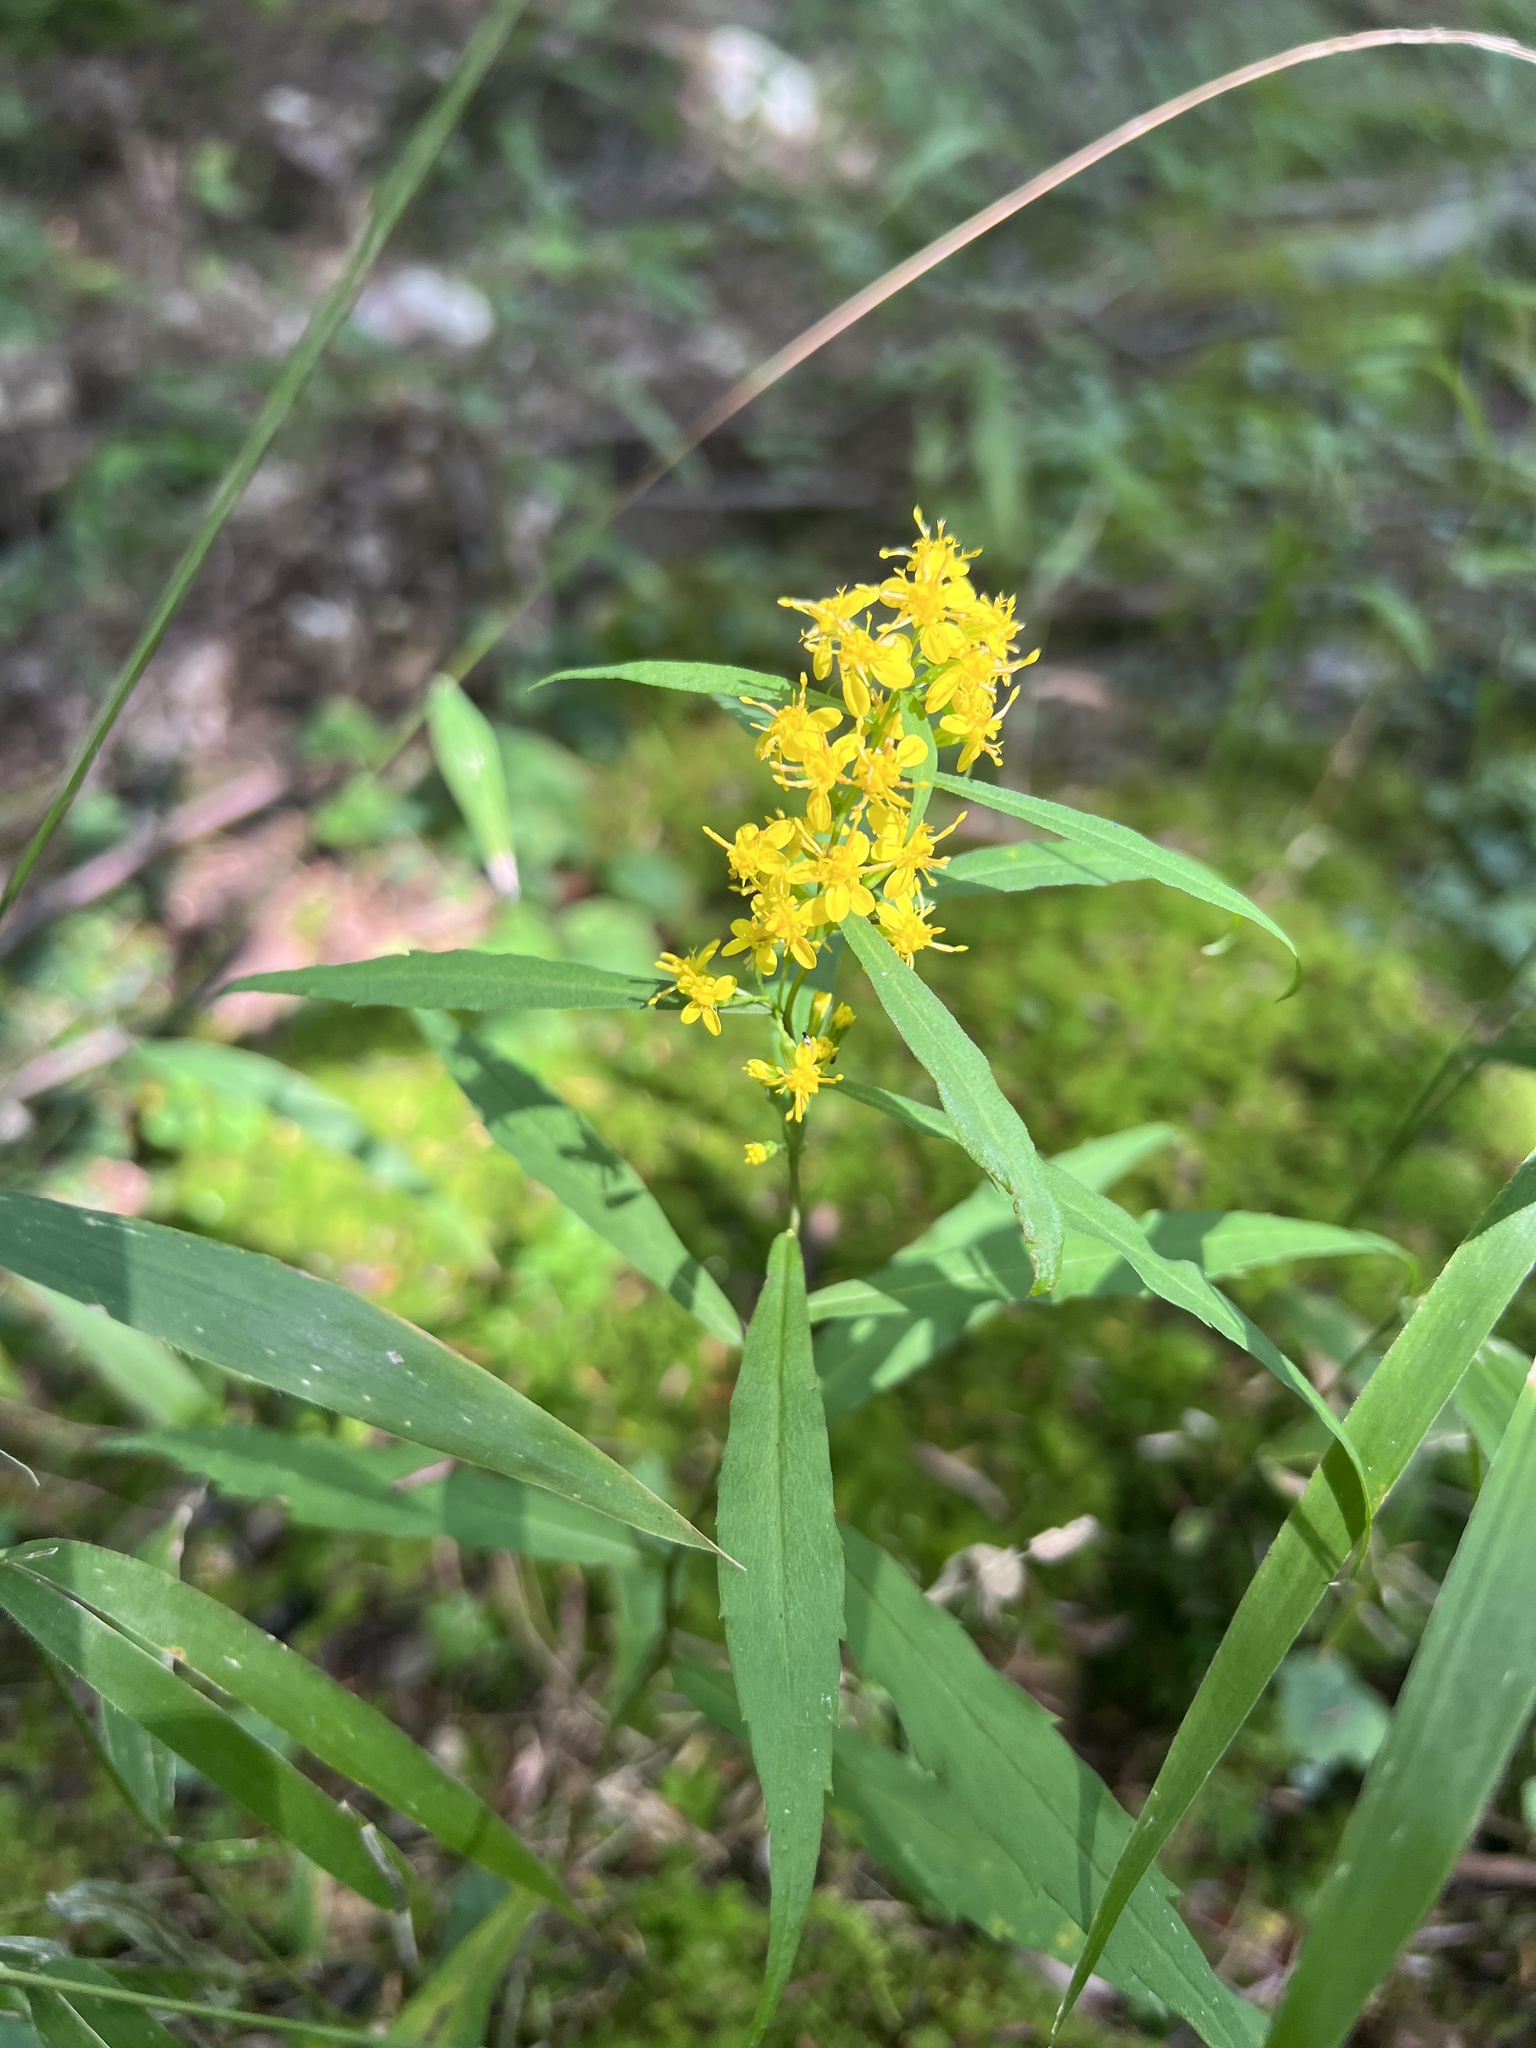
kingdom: Plantae
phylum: Tracheophyta
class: Magnoliopsida
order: Asterales
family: Asteraceae
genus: Solidago
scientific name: Solidago caesia
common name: Woodland goldenrod
